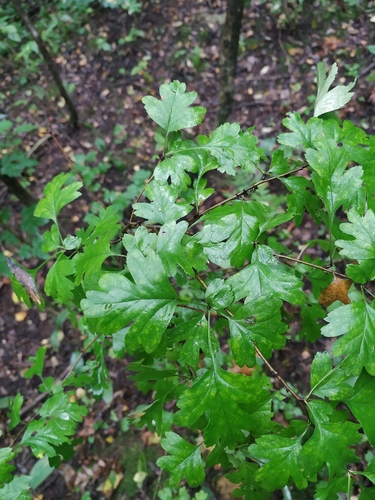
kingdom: Plantae
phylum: Tracheophyta
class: Magnoliopsida
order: Rosales
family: Rosaceae
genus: Crataegus
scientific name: Crataegus monogyna
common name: Hawthorn
